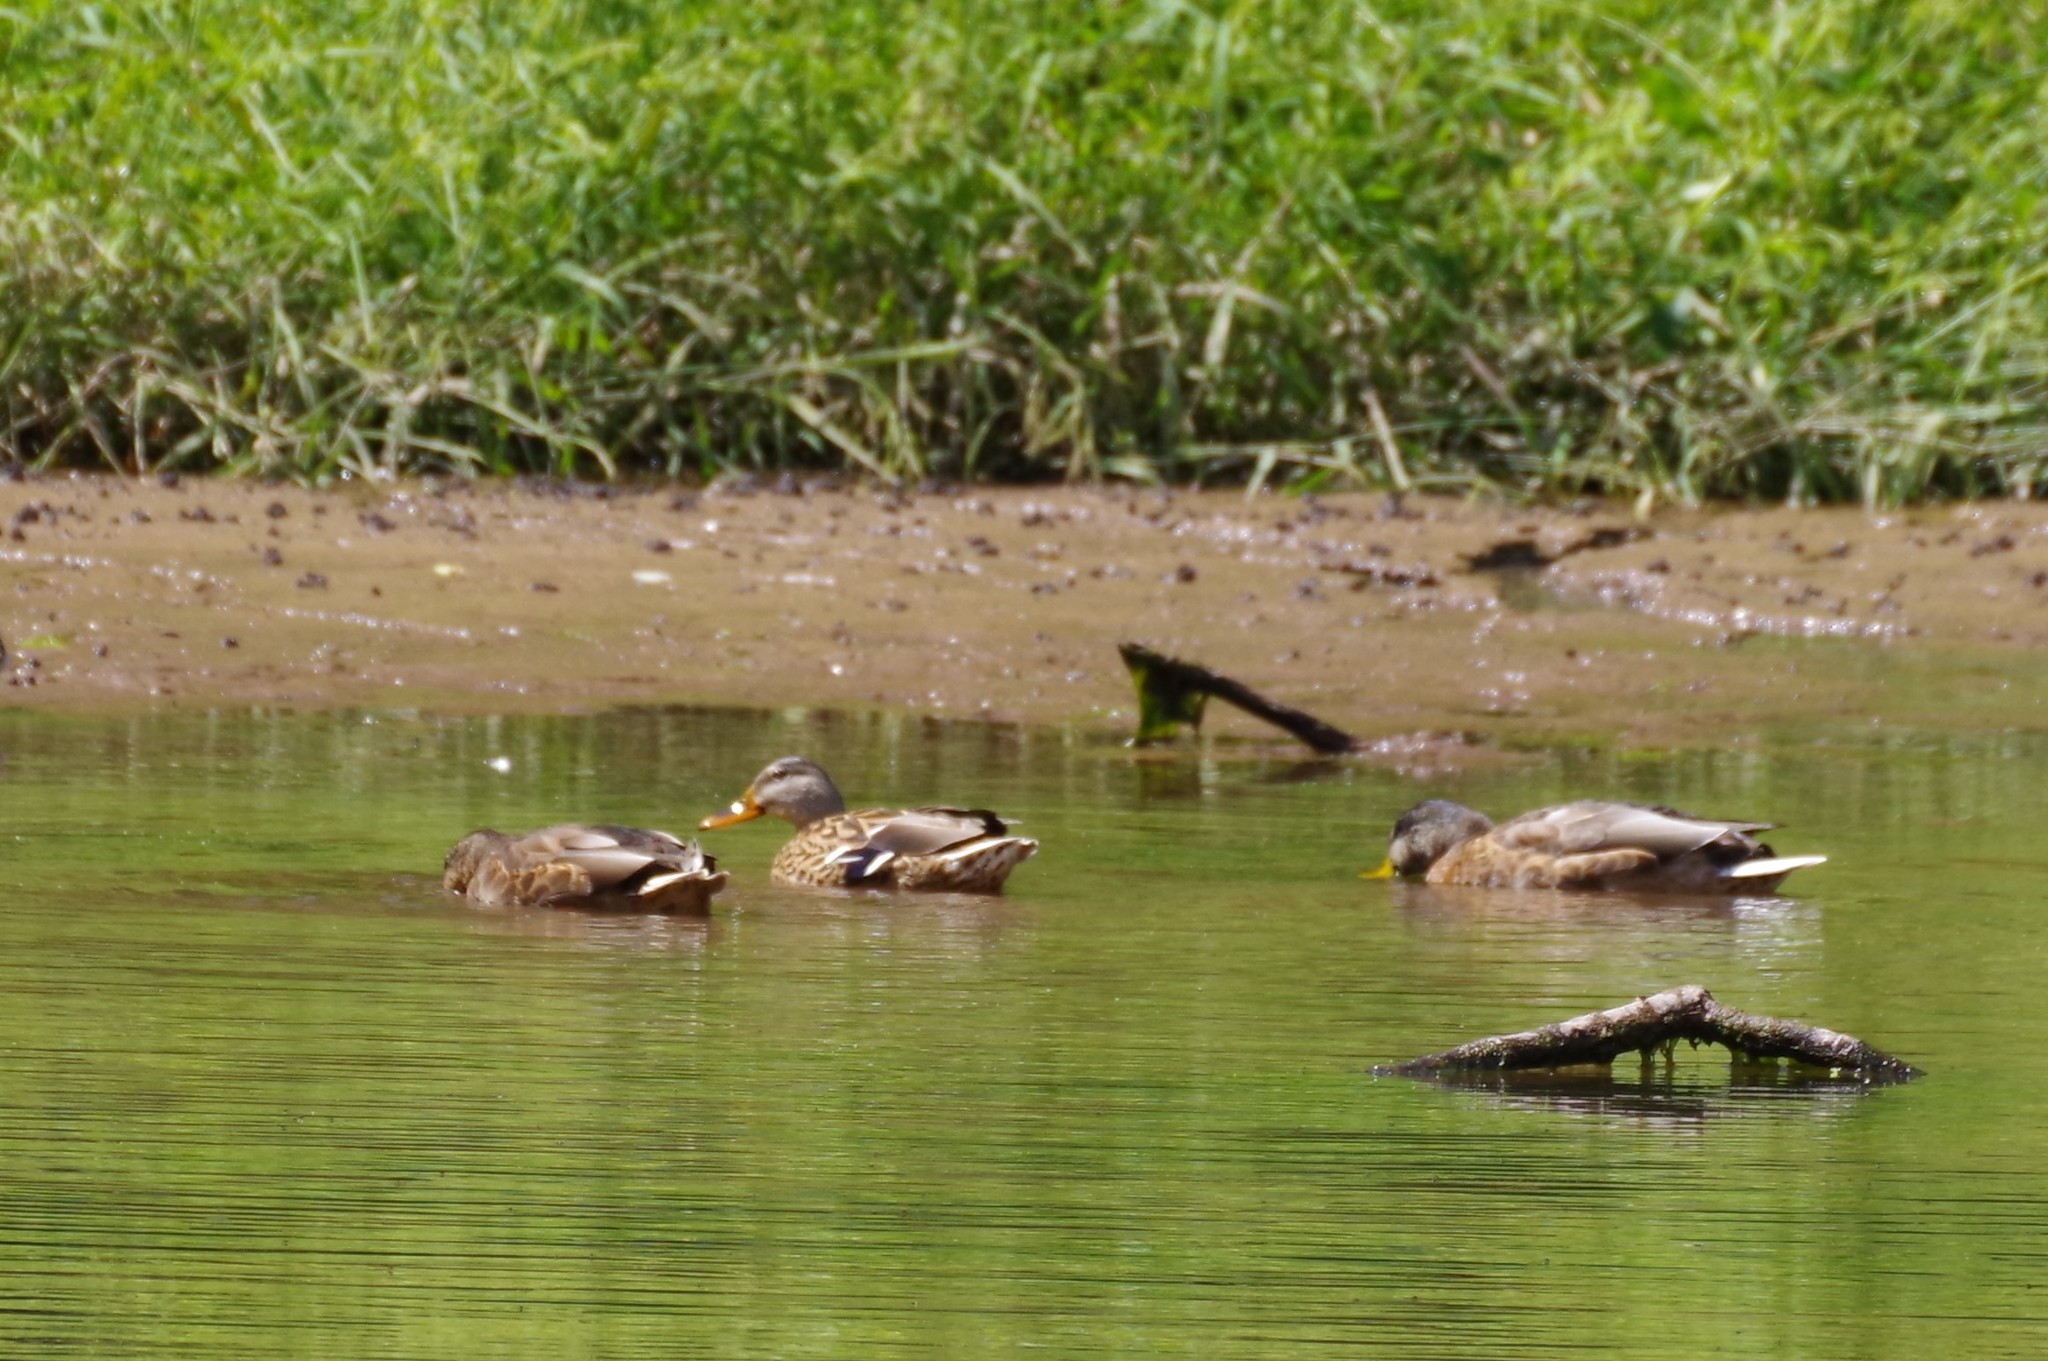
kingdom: Animalia
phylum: Chordata
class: Aves
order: Anseriformes
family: Anatidae
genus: Anas
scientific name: Anas platyrhynchos
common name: Mallard
